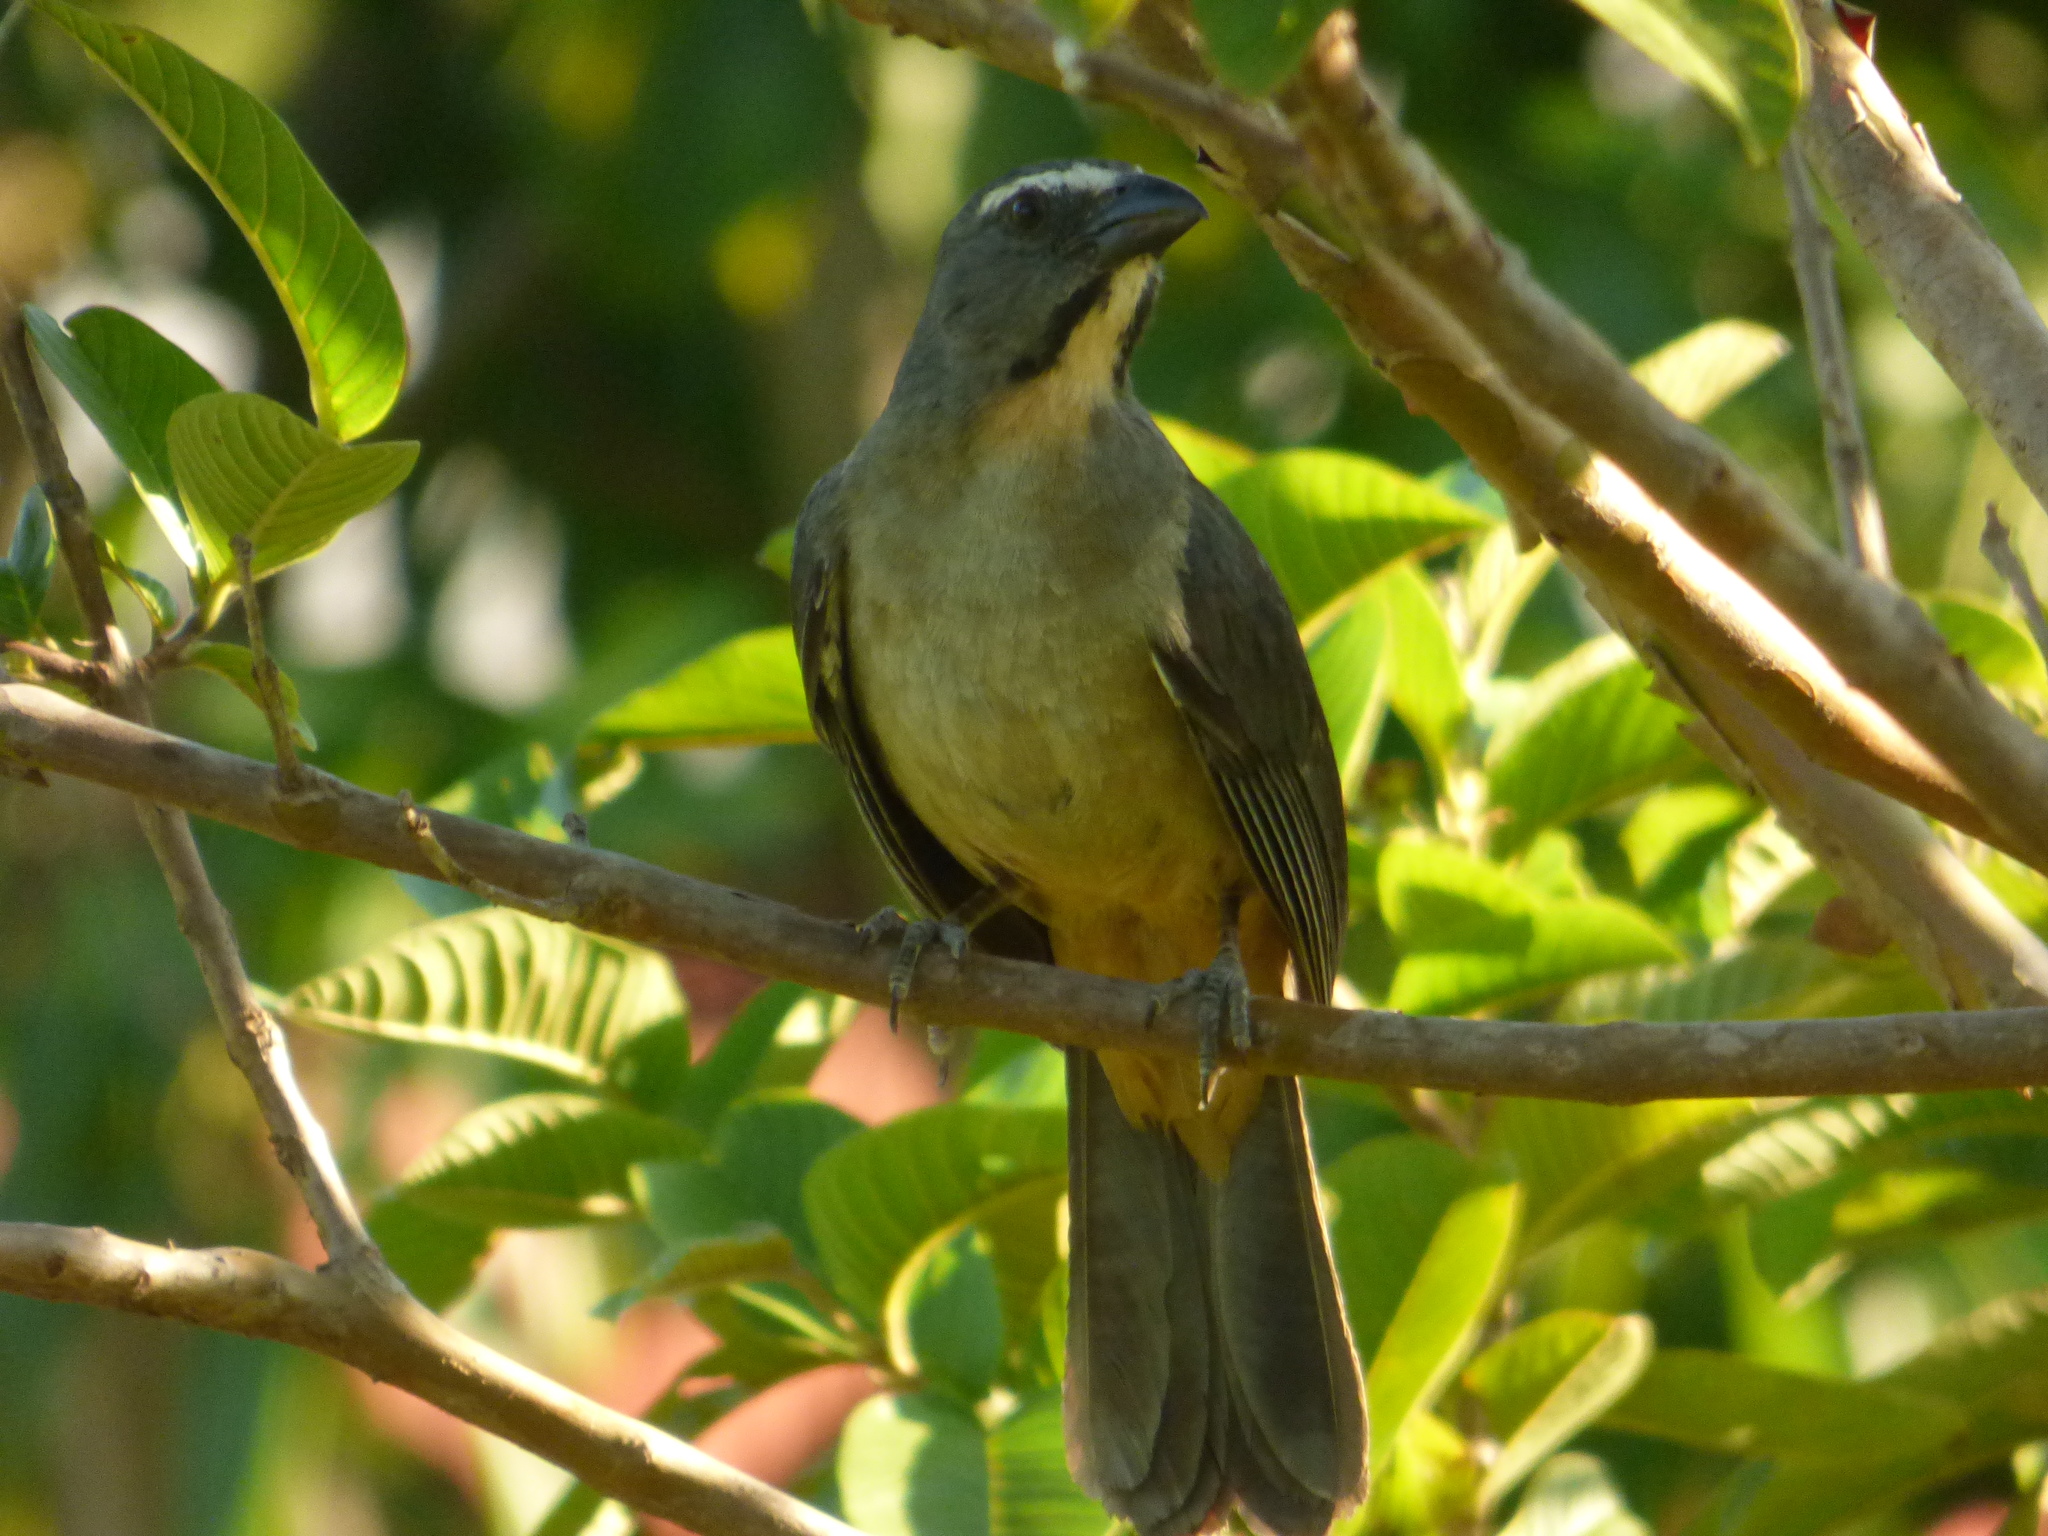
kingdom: Animalia
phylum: Chordata
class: Aves
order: Passeriformes
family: Thraupidae
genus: Saltator
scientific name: Saltator coerulescens
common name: Grayish saltator
